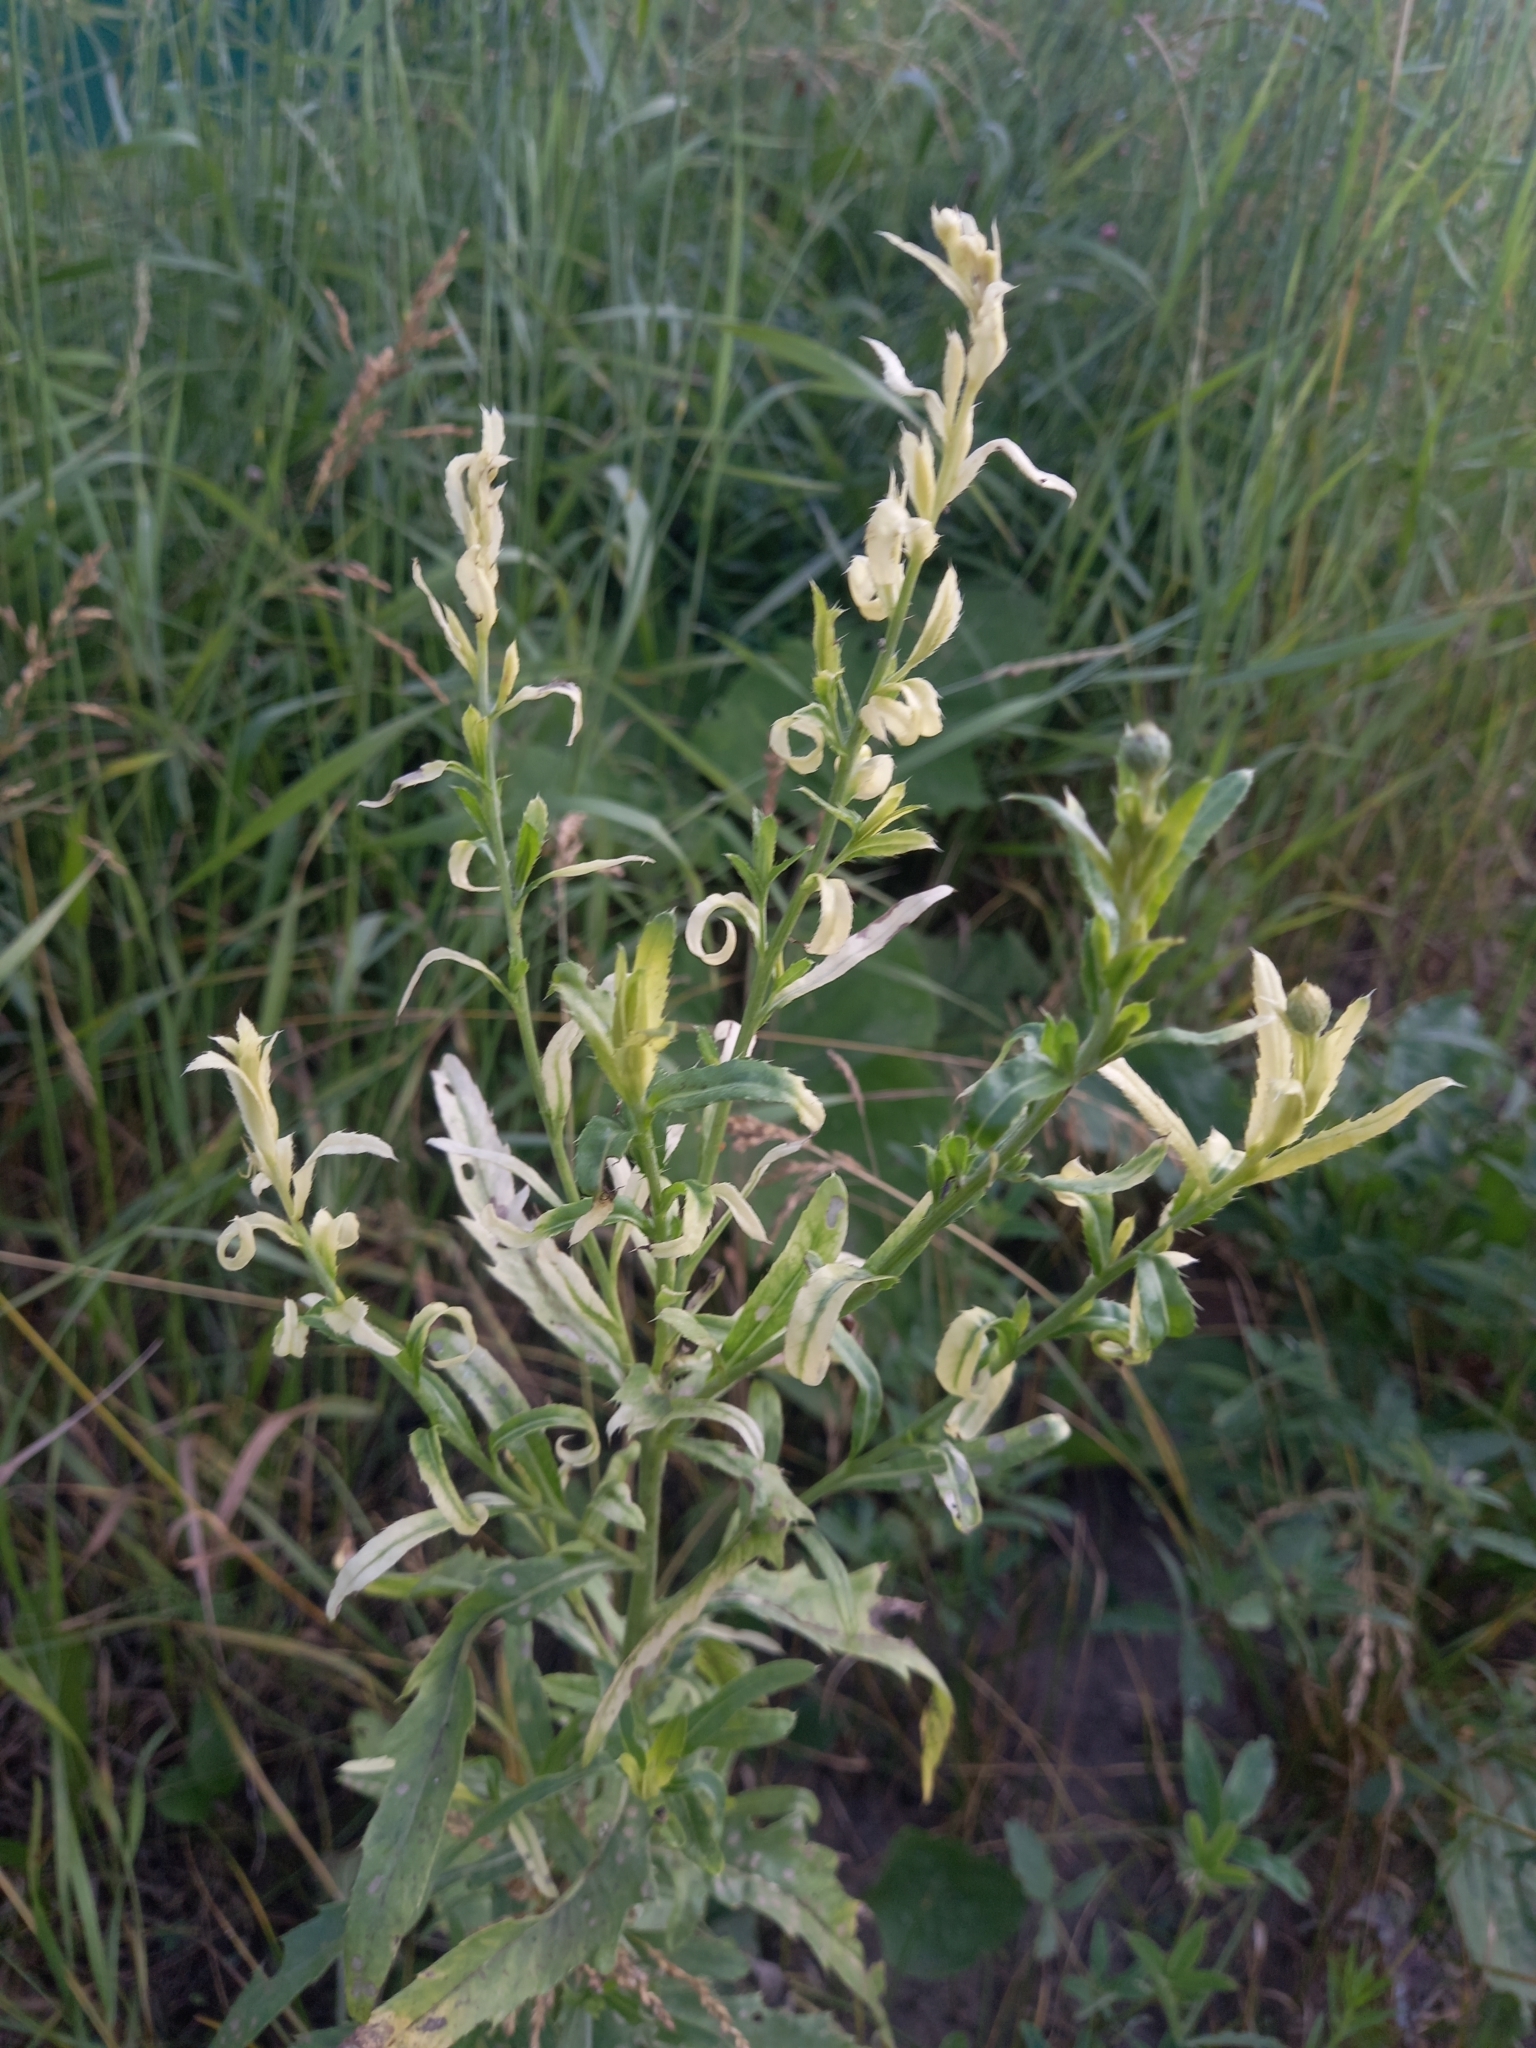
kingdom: Bacteria
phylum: Proteobacteria
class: Gammaproteobacteria
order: Pseudomonadales
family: Pseudomonadaceae
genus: Pseudomonas
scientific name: Pseudomonas syringae
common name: Bacterial speck
